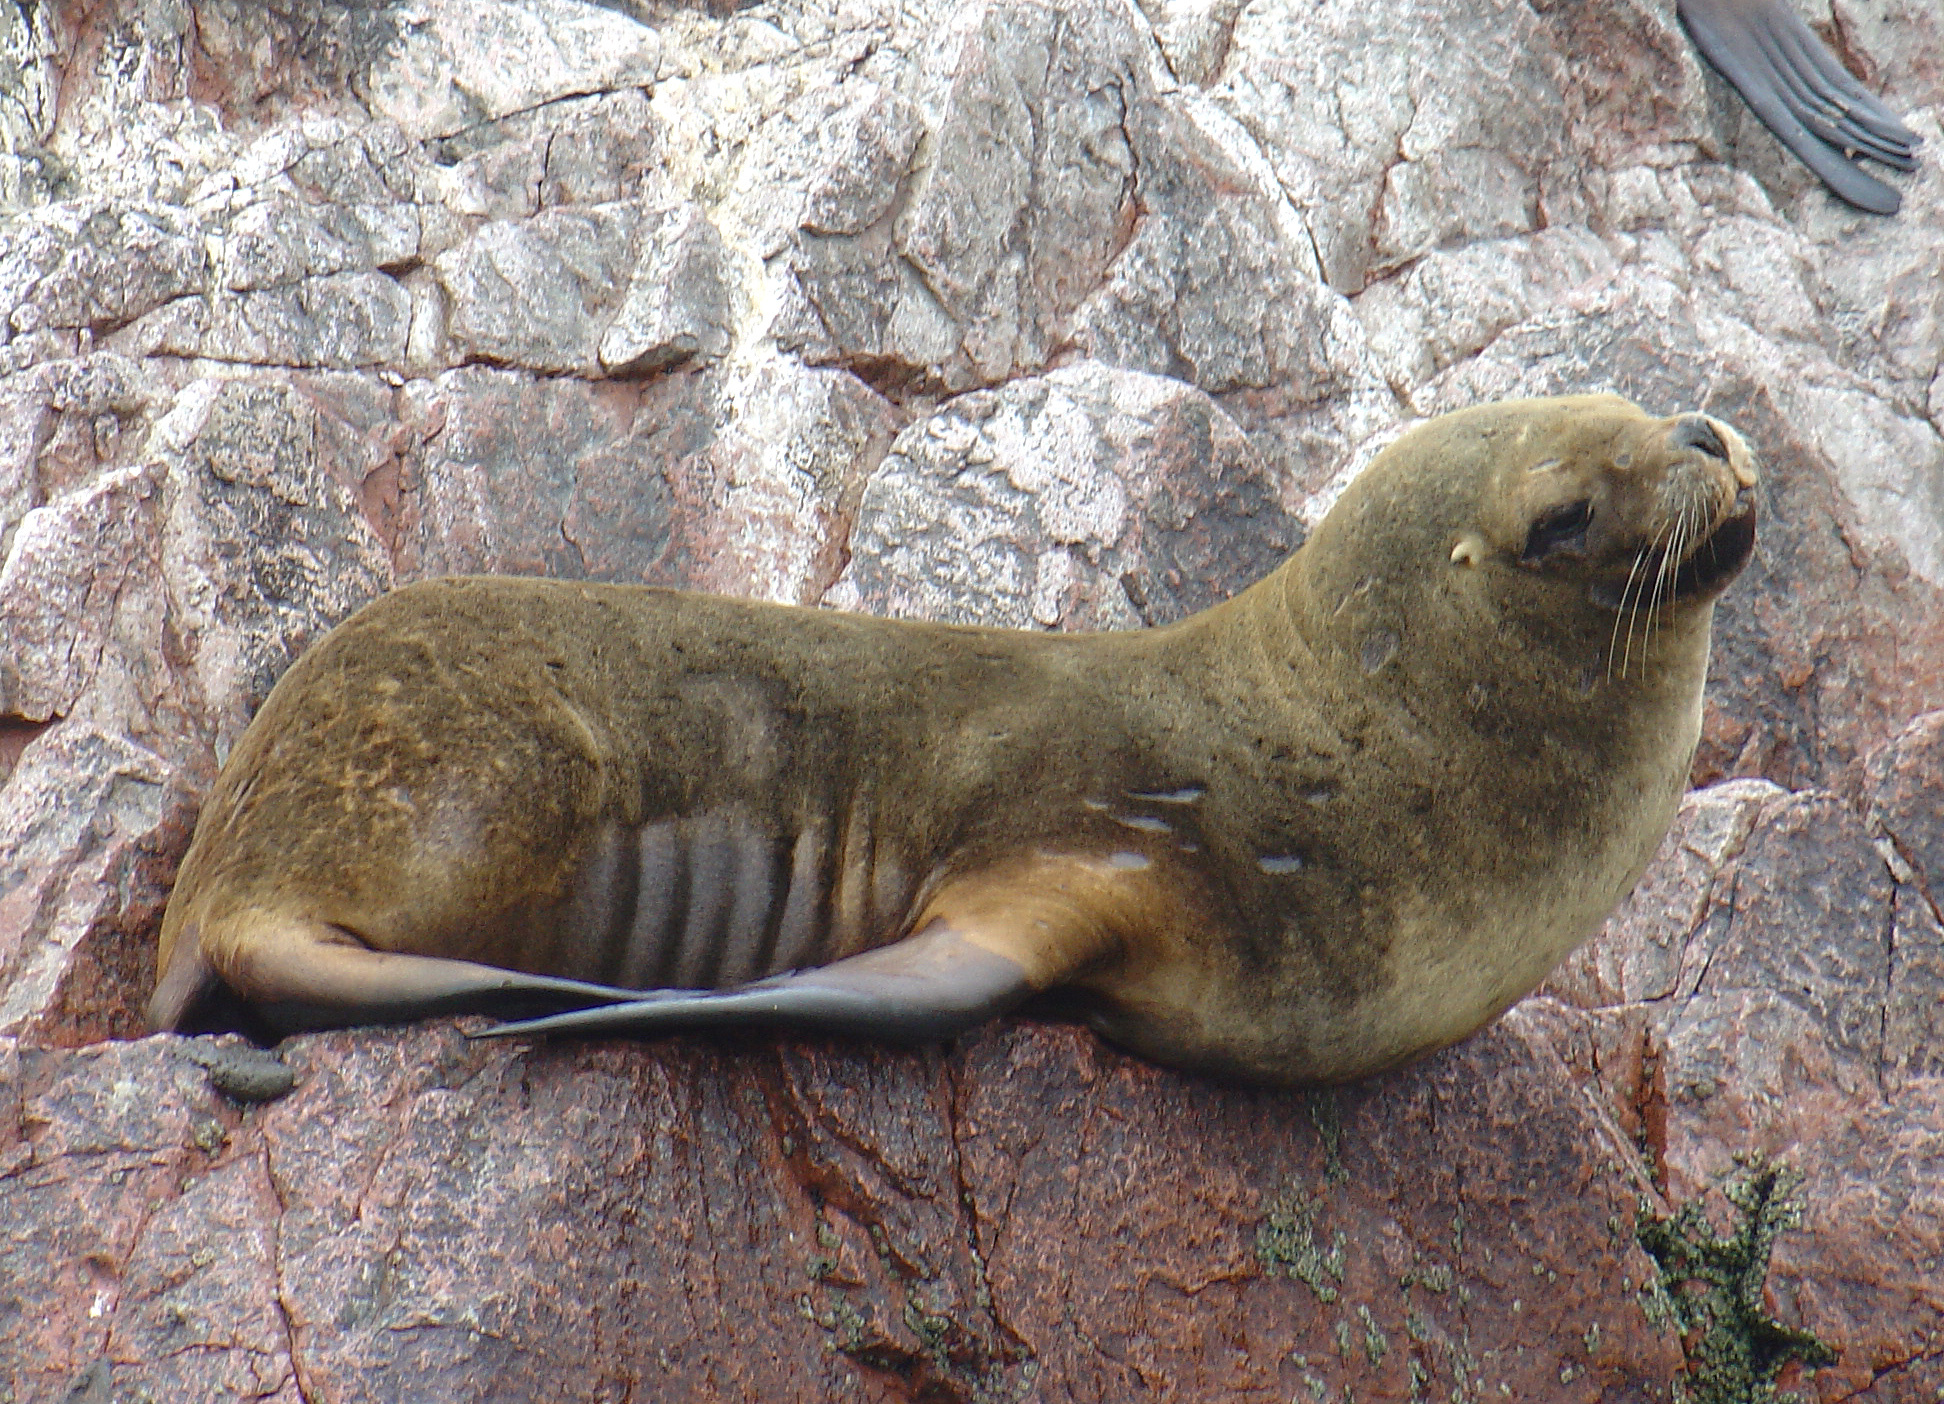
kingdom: Animalia
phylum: Chordata
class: Mammalia
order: Carnivora
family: Otariidae
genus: Otaria
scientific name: Otaria byronia
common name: South american sea lion
